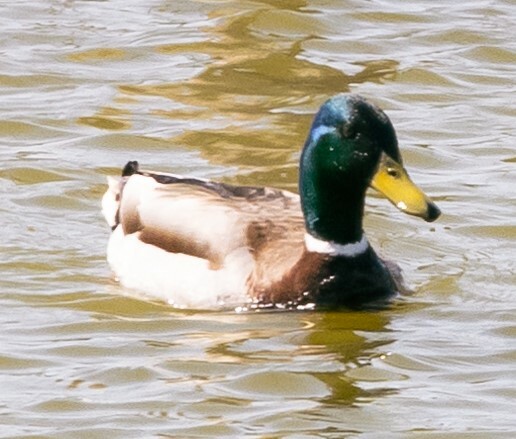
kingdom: Animalia
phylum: Chordata
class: Aves
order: Anseriformes
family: Anatidae
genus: Anas
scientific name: Anas platyrhynchos
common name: Mallard
